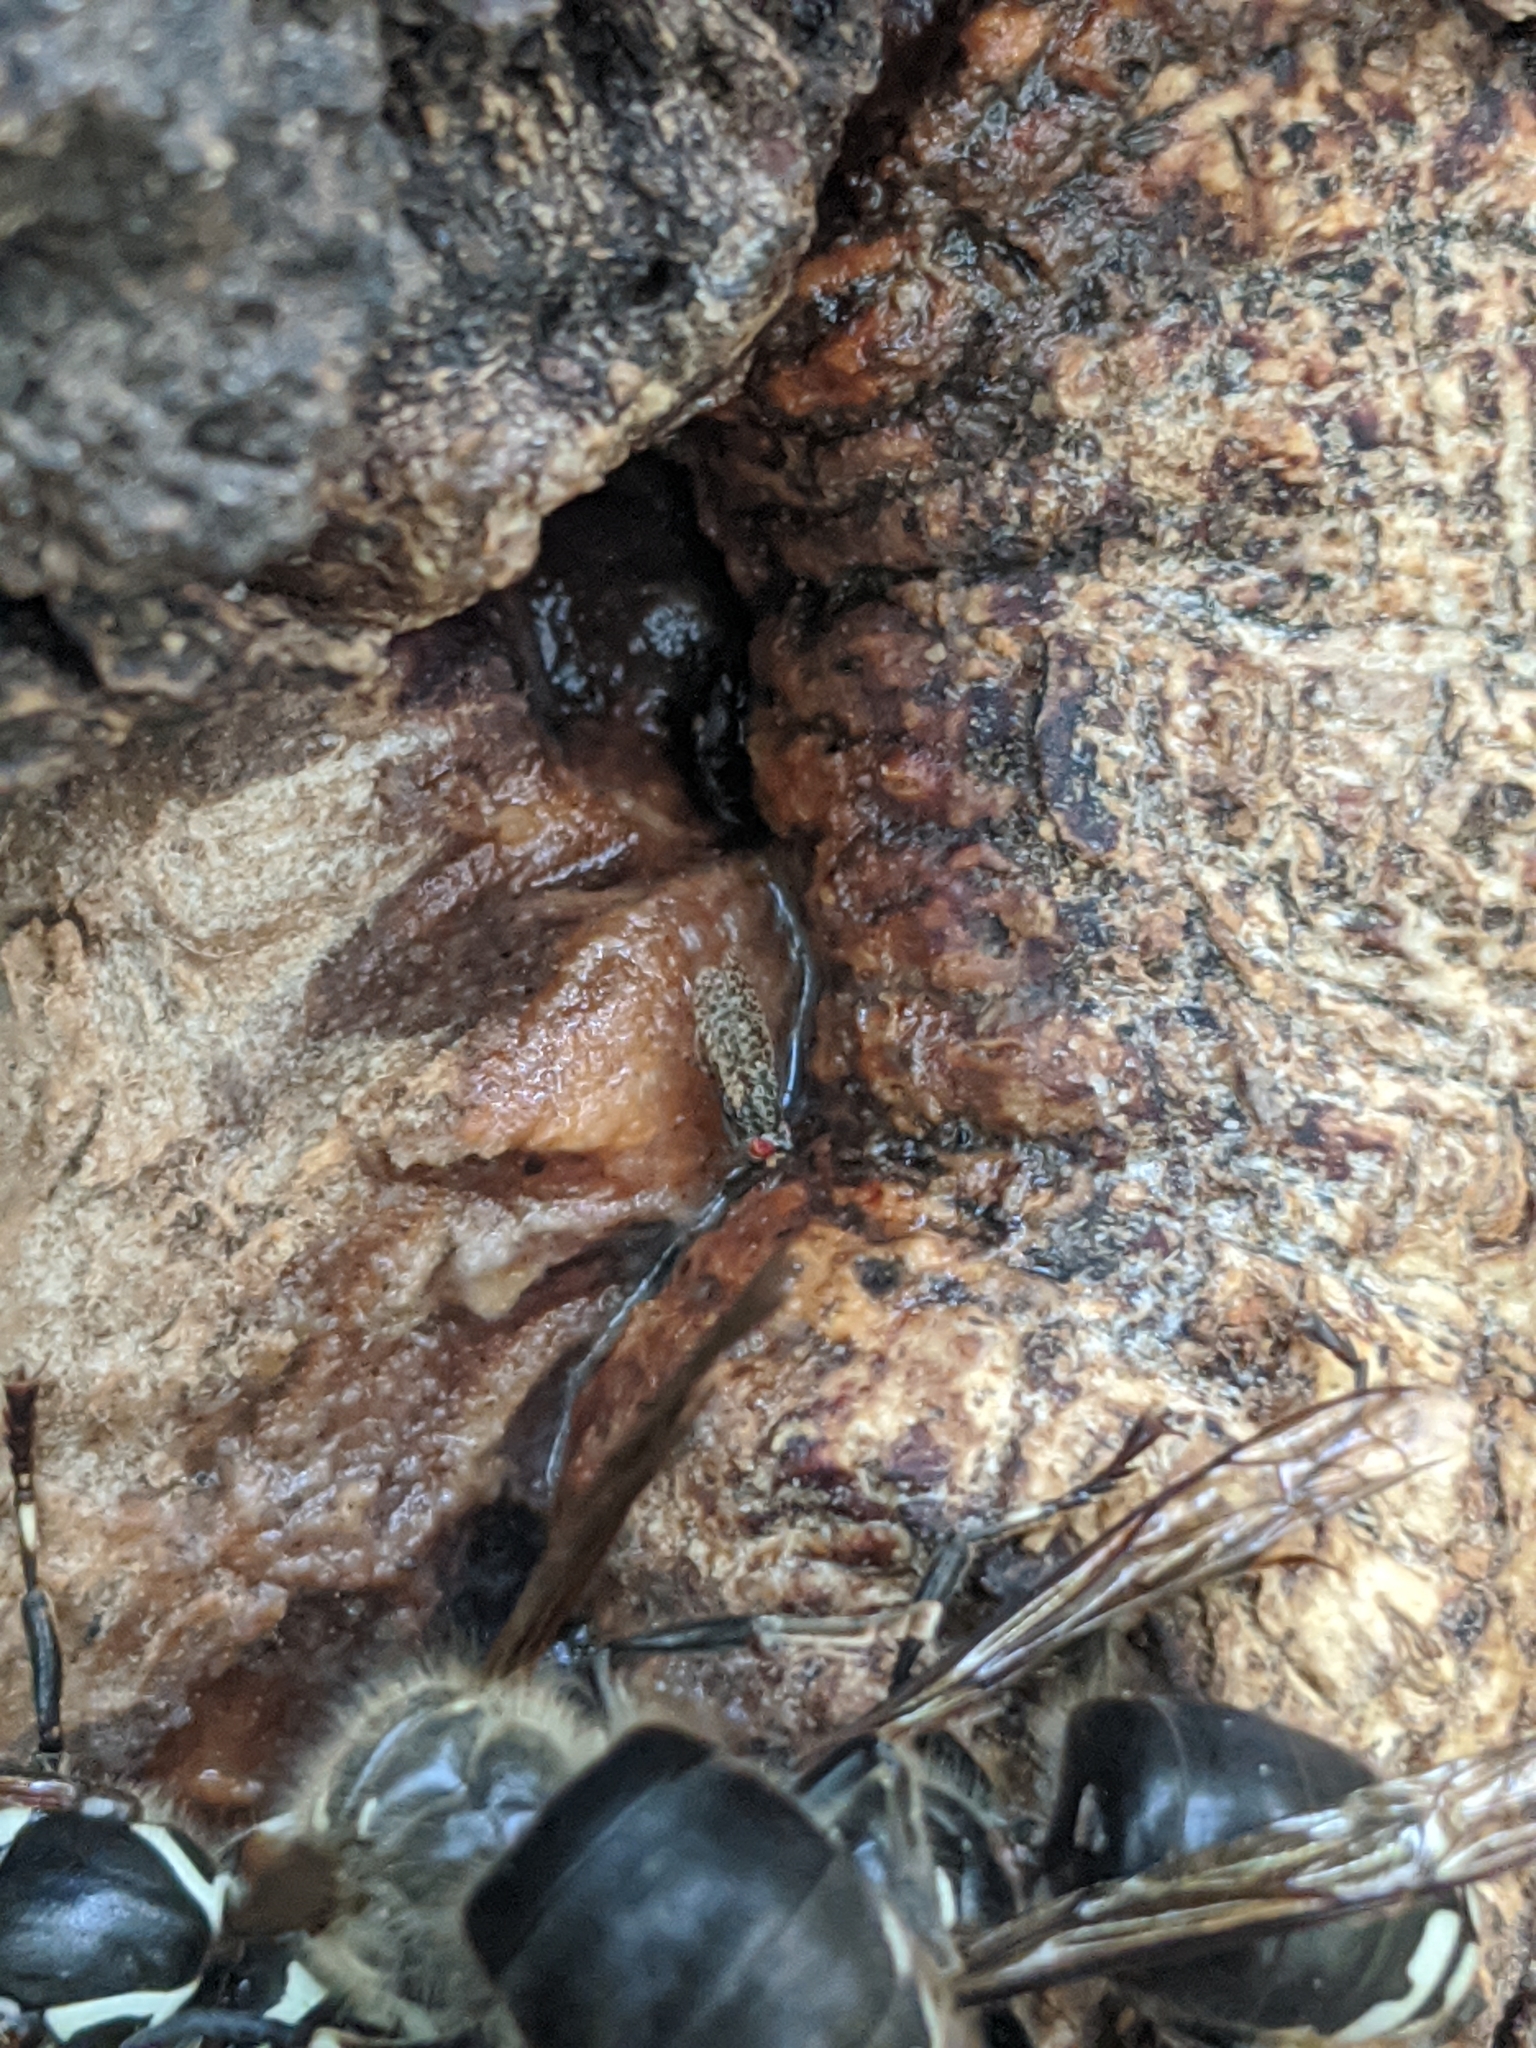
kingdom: Animalia
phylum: Arthropoda
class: Insecta
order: Diptera
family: Odiniidae
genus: Traginops
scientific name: Traginops irroratus
